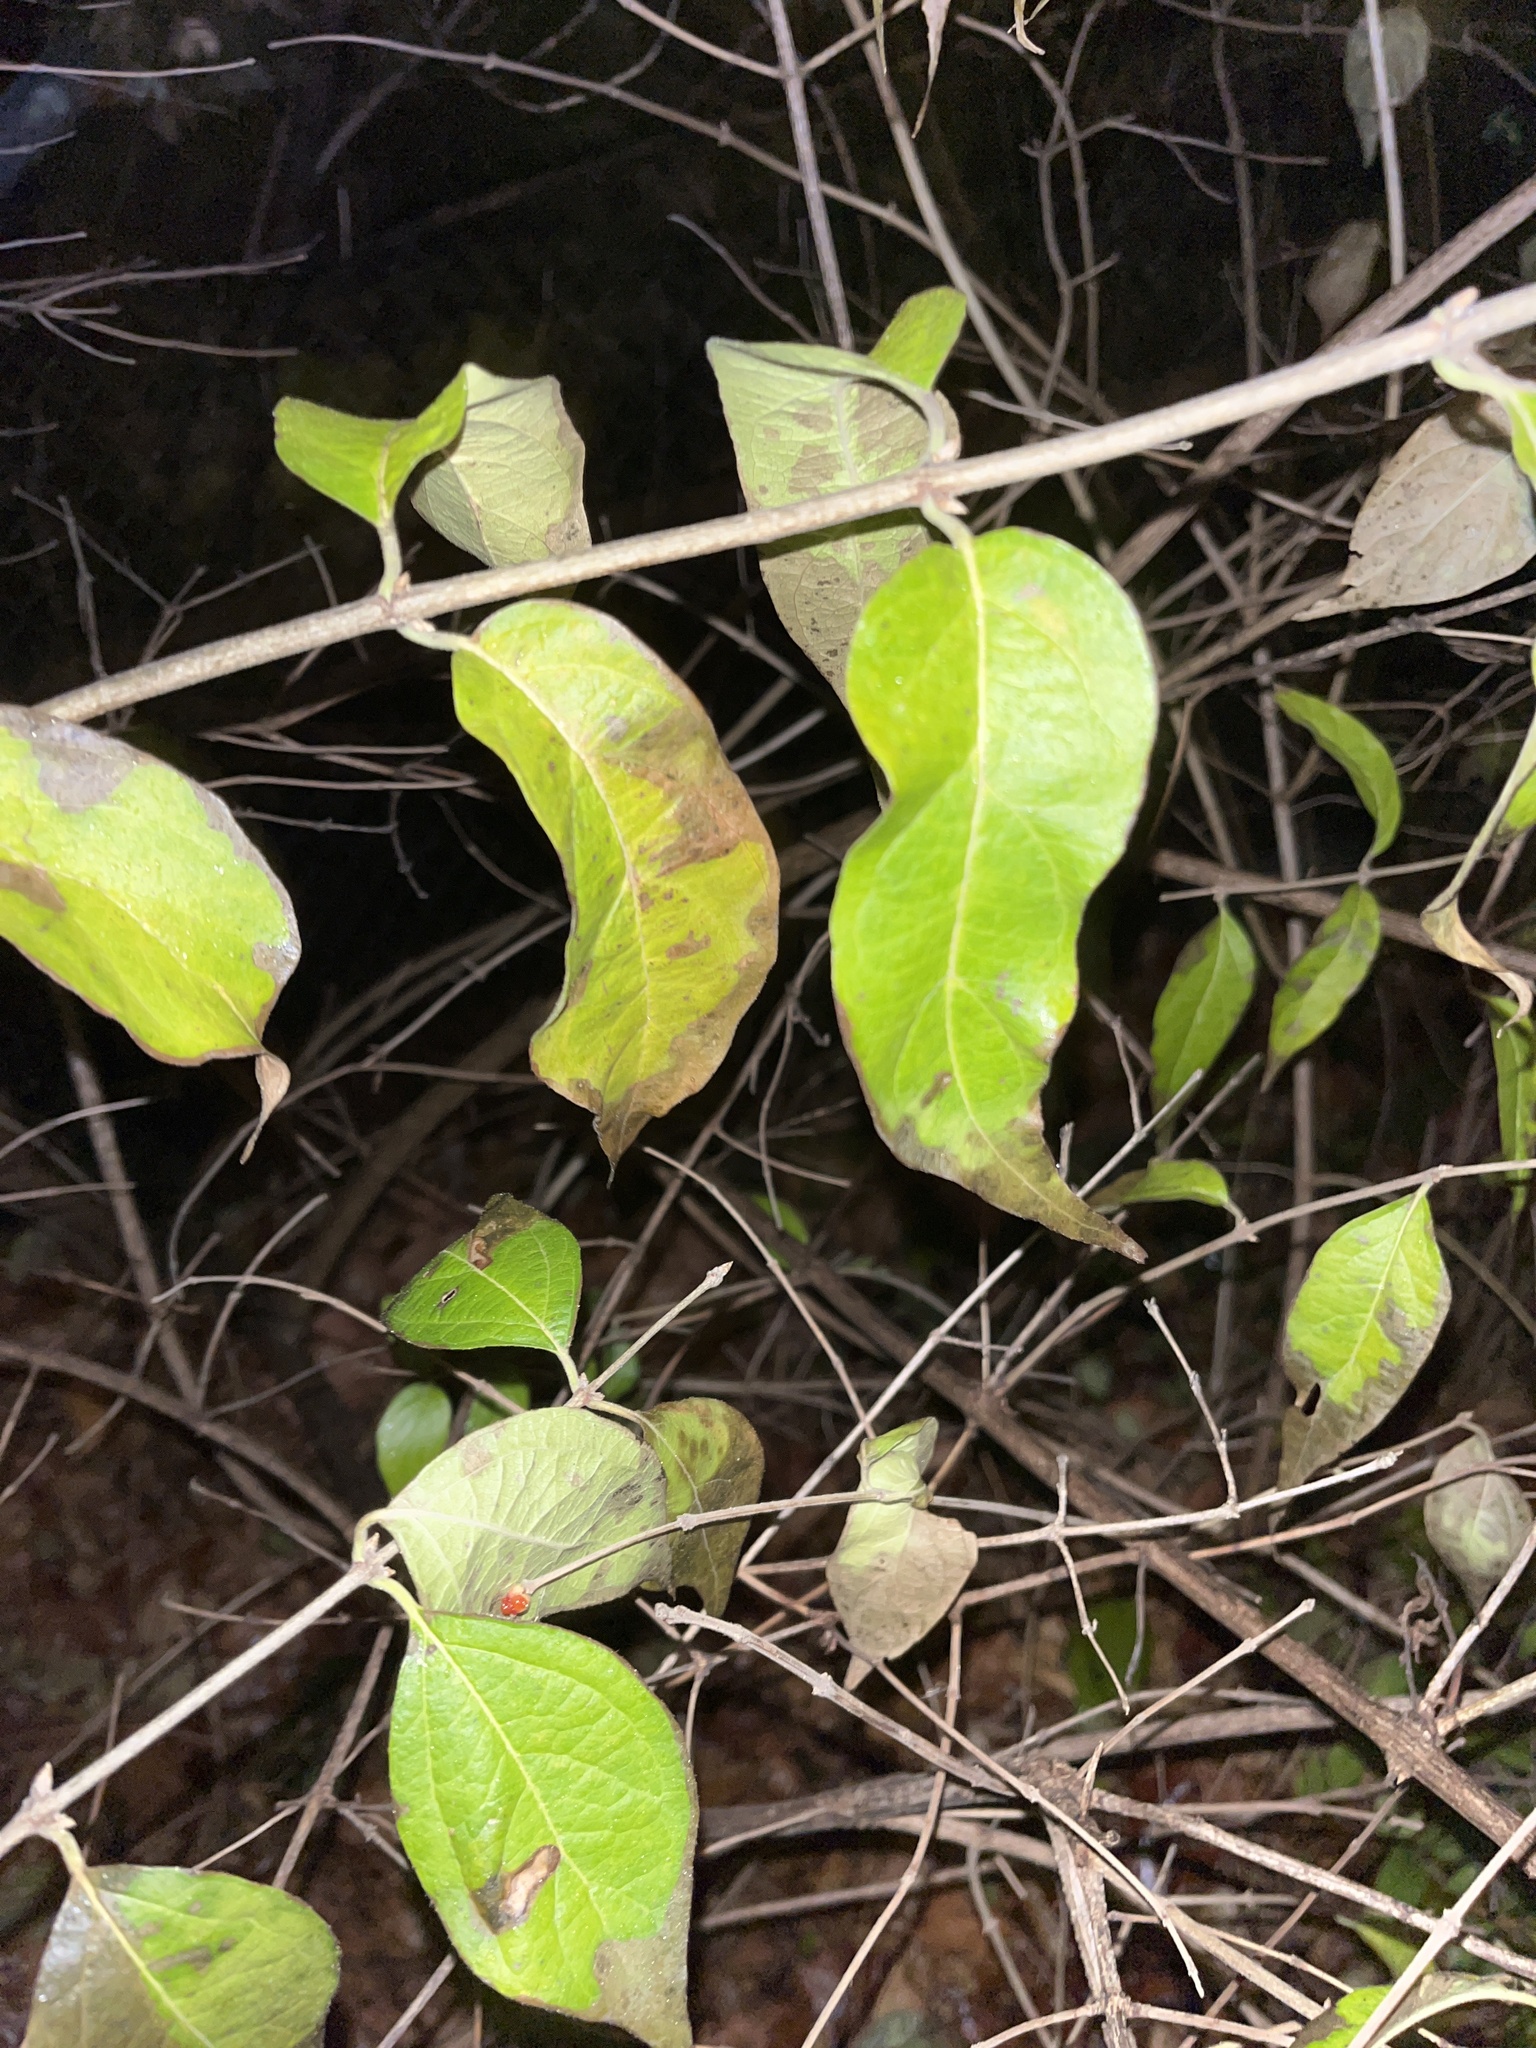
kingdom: Plantae
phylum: Tracheophyta
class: Magnoliopsida
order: Dipsacales
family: Caprifoliaceae
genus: Lonicera
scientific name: Lonicera maackii
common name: Amur honeysuckle
